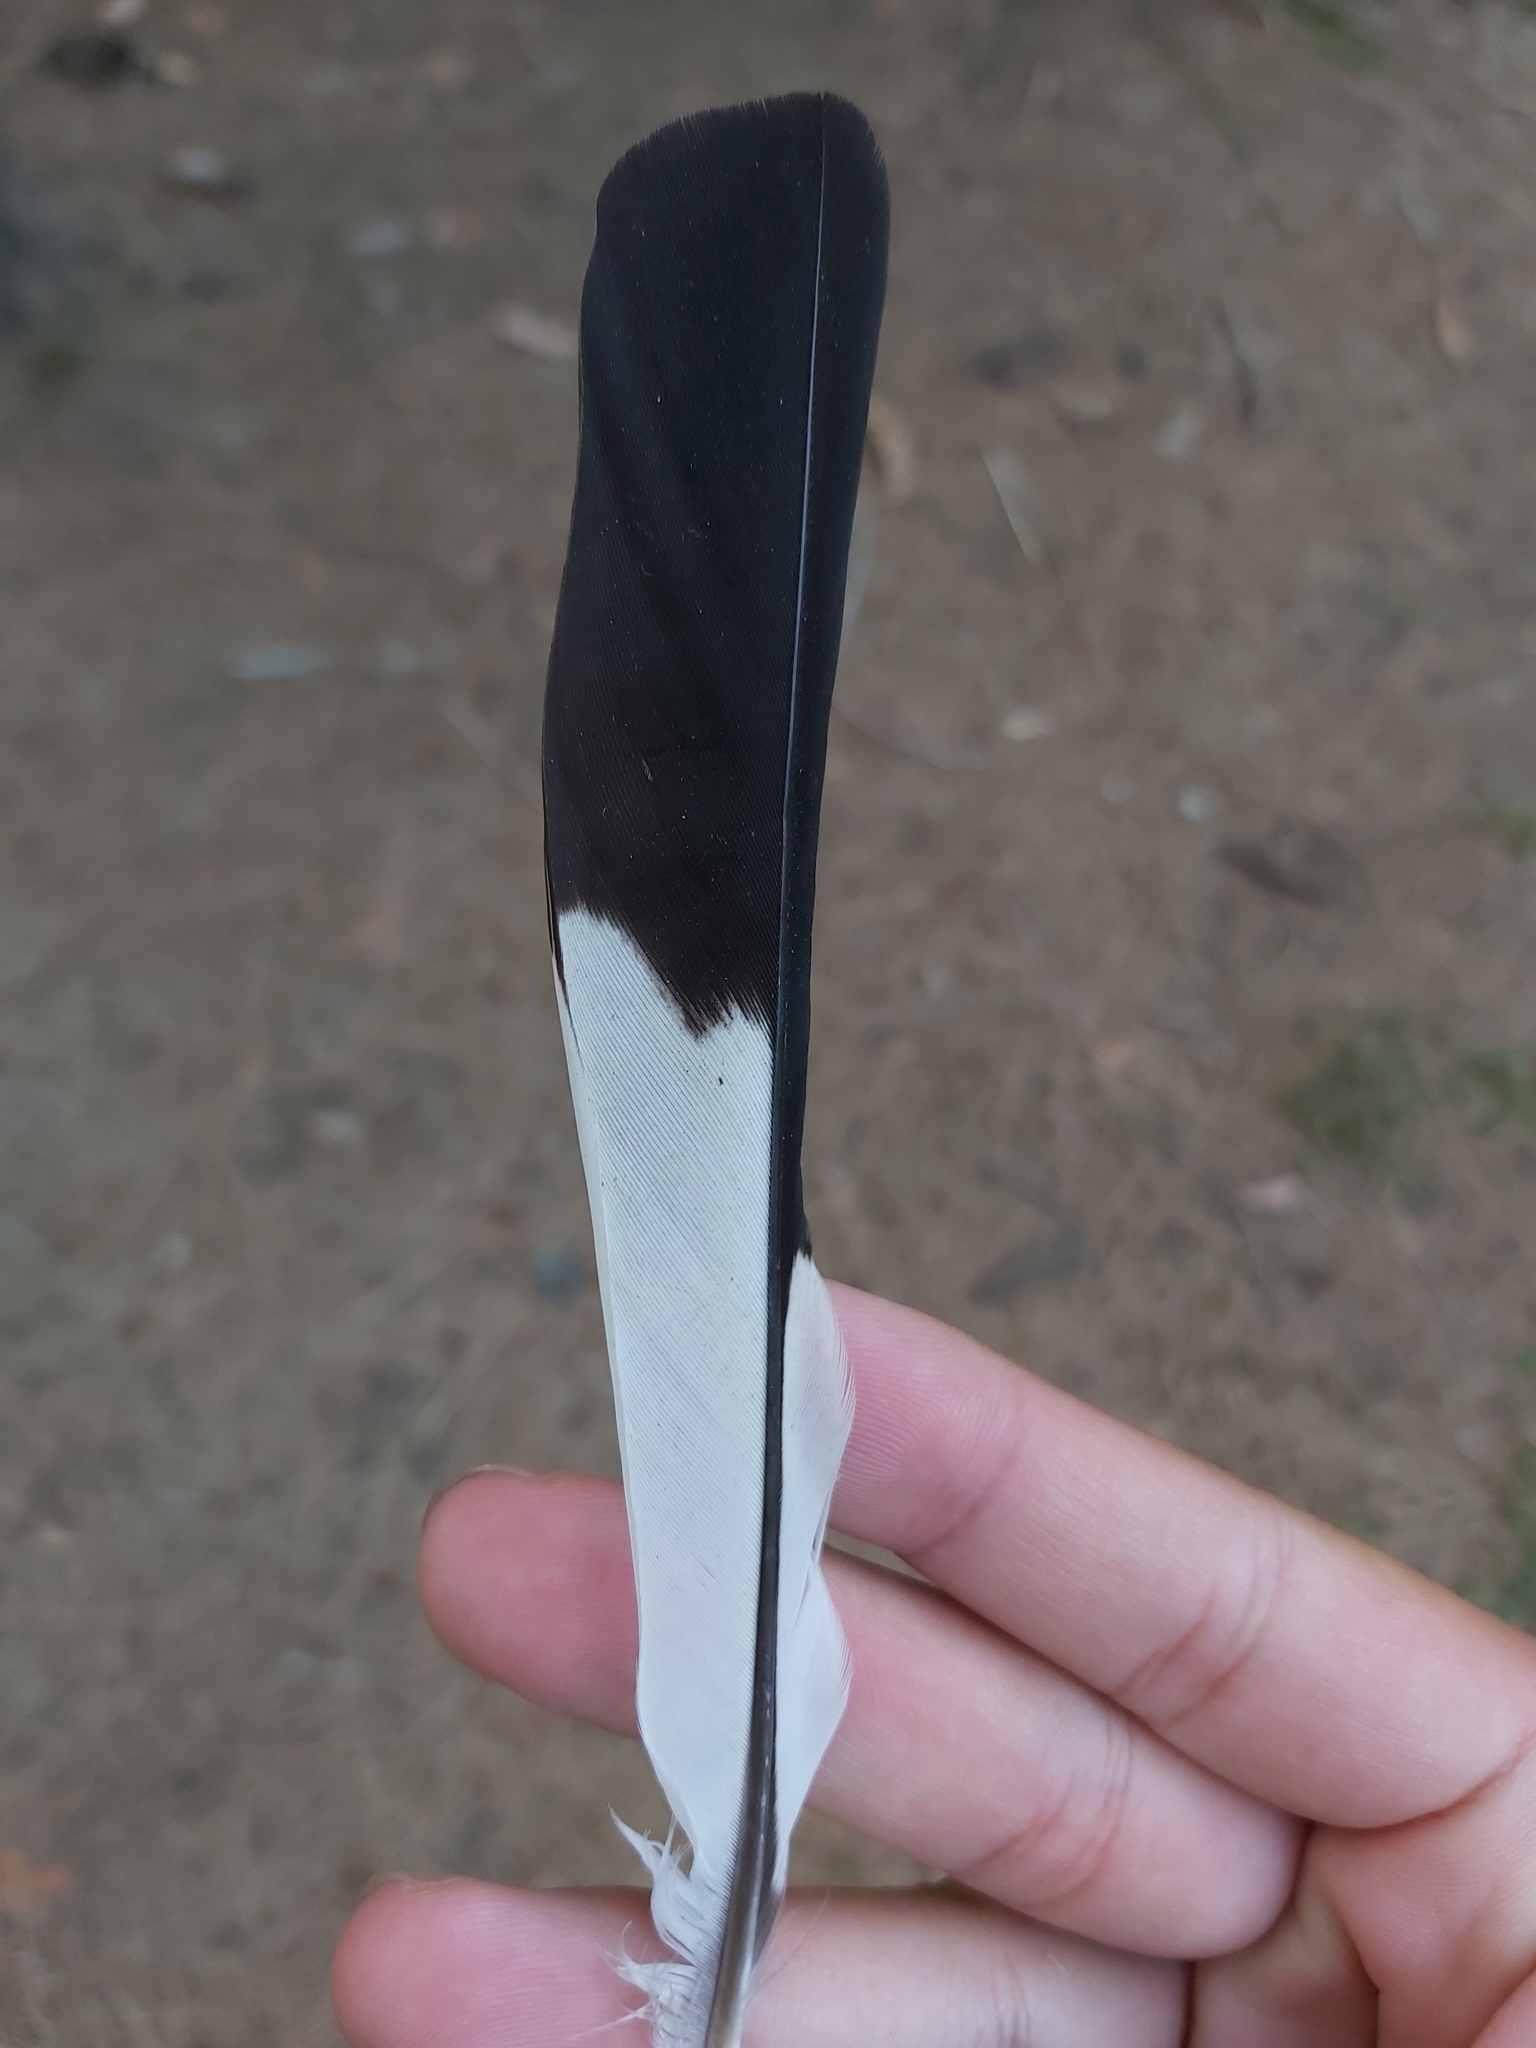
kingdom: Animalia
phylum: Chordata
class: Aves
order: Passeriformes
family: Cracticidae
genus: Gymnorhina
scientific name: Gymnorhina tibicen
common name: Australian magpie
